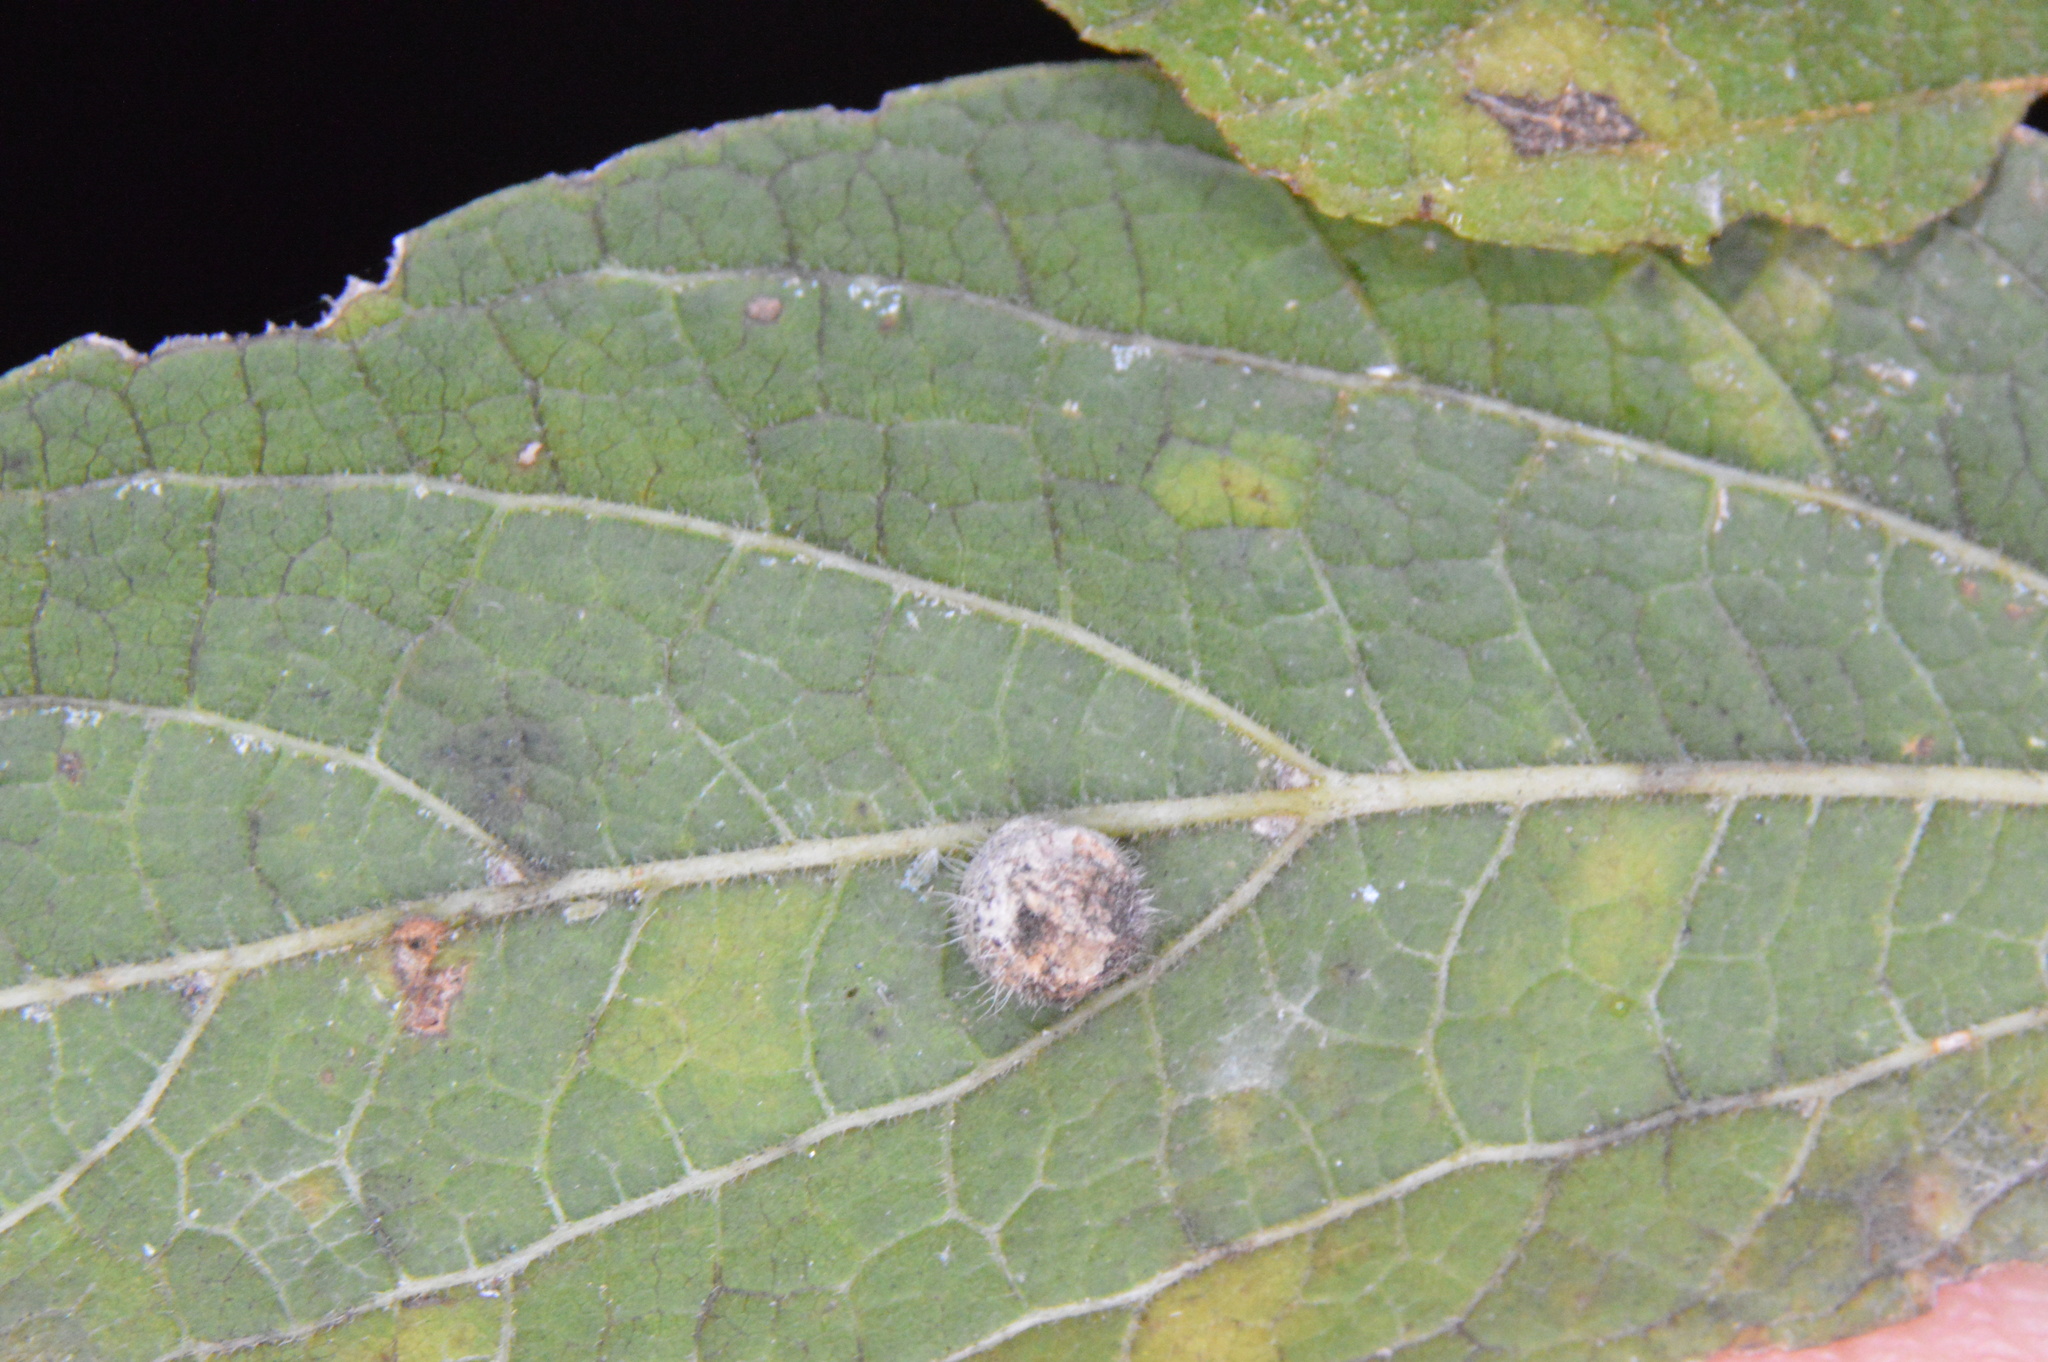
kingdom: Animalia
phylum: Arthropoda
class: Insecta
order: Diptera
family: Cecidomyiidae
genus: Celticecis
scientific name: Celticecis pubescens
